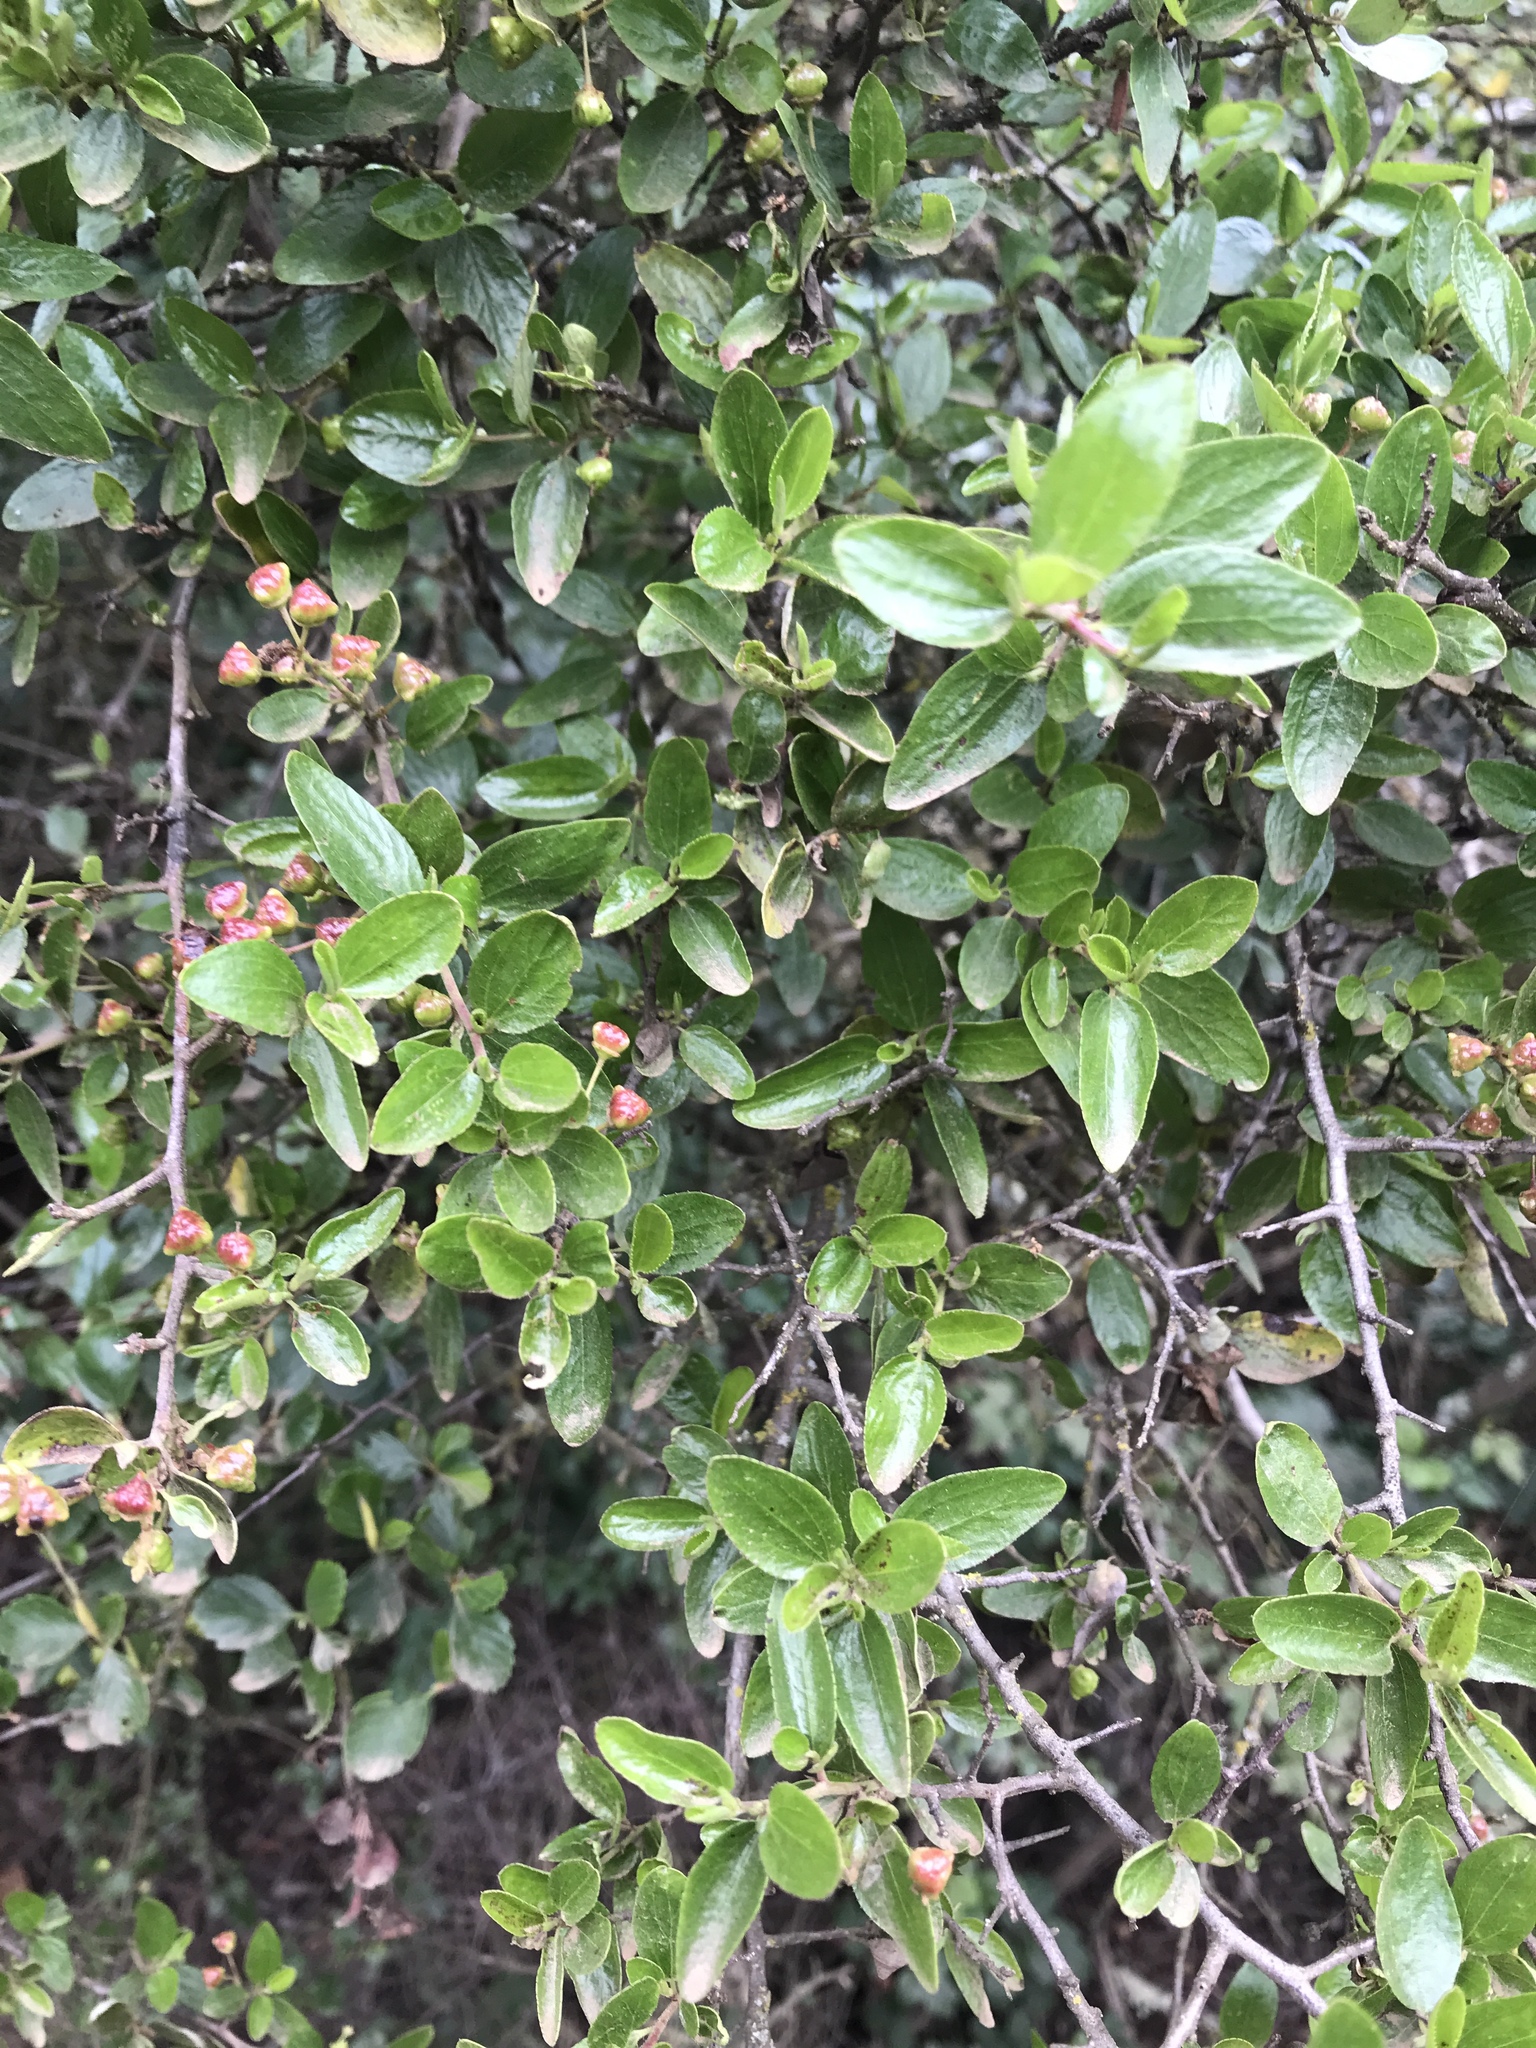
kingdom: Plantae
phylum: Tracheophyta
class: Magnoliopsida
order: Rosales
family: Rhamnaceae
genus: Ceanothus
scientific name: Ceanothus oliganthus
